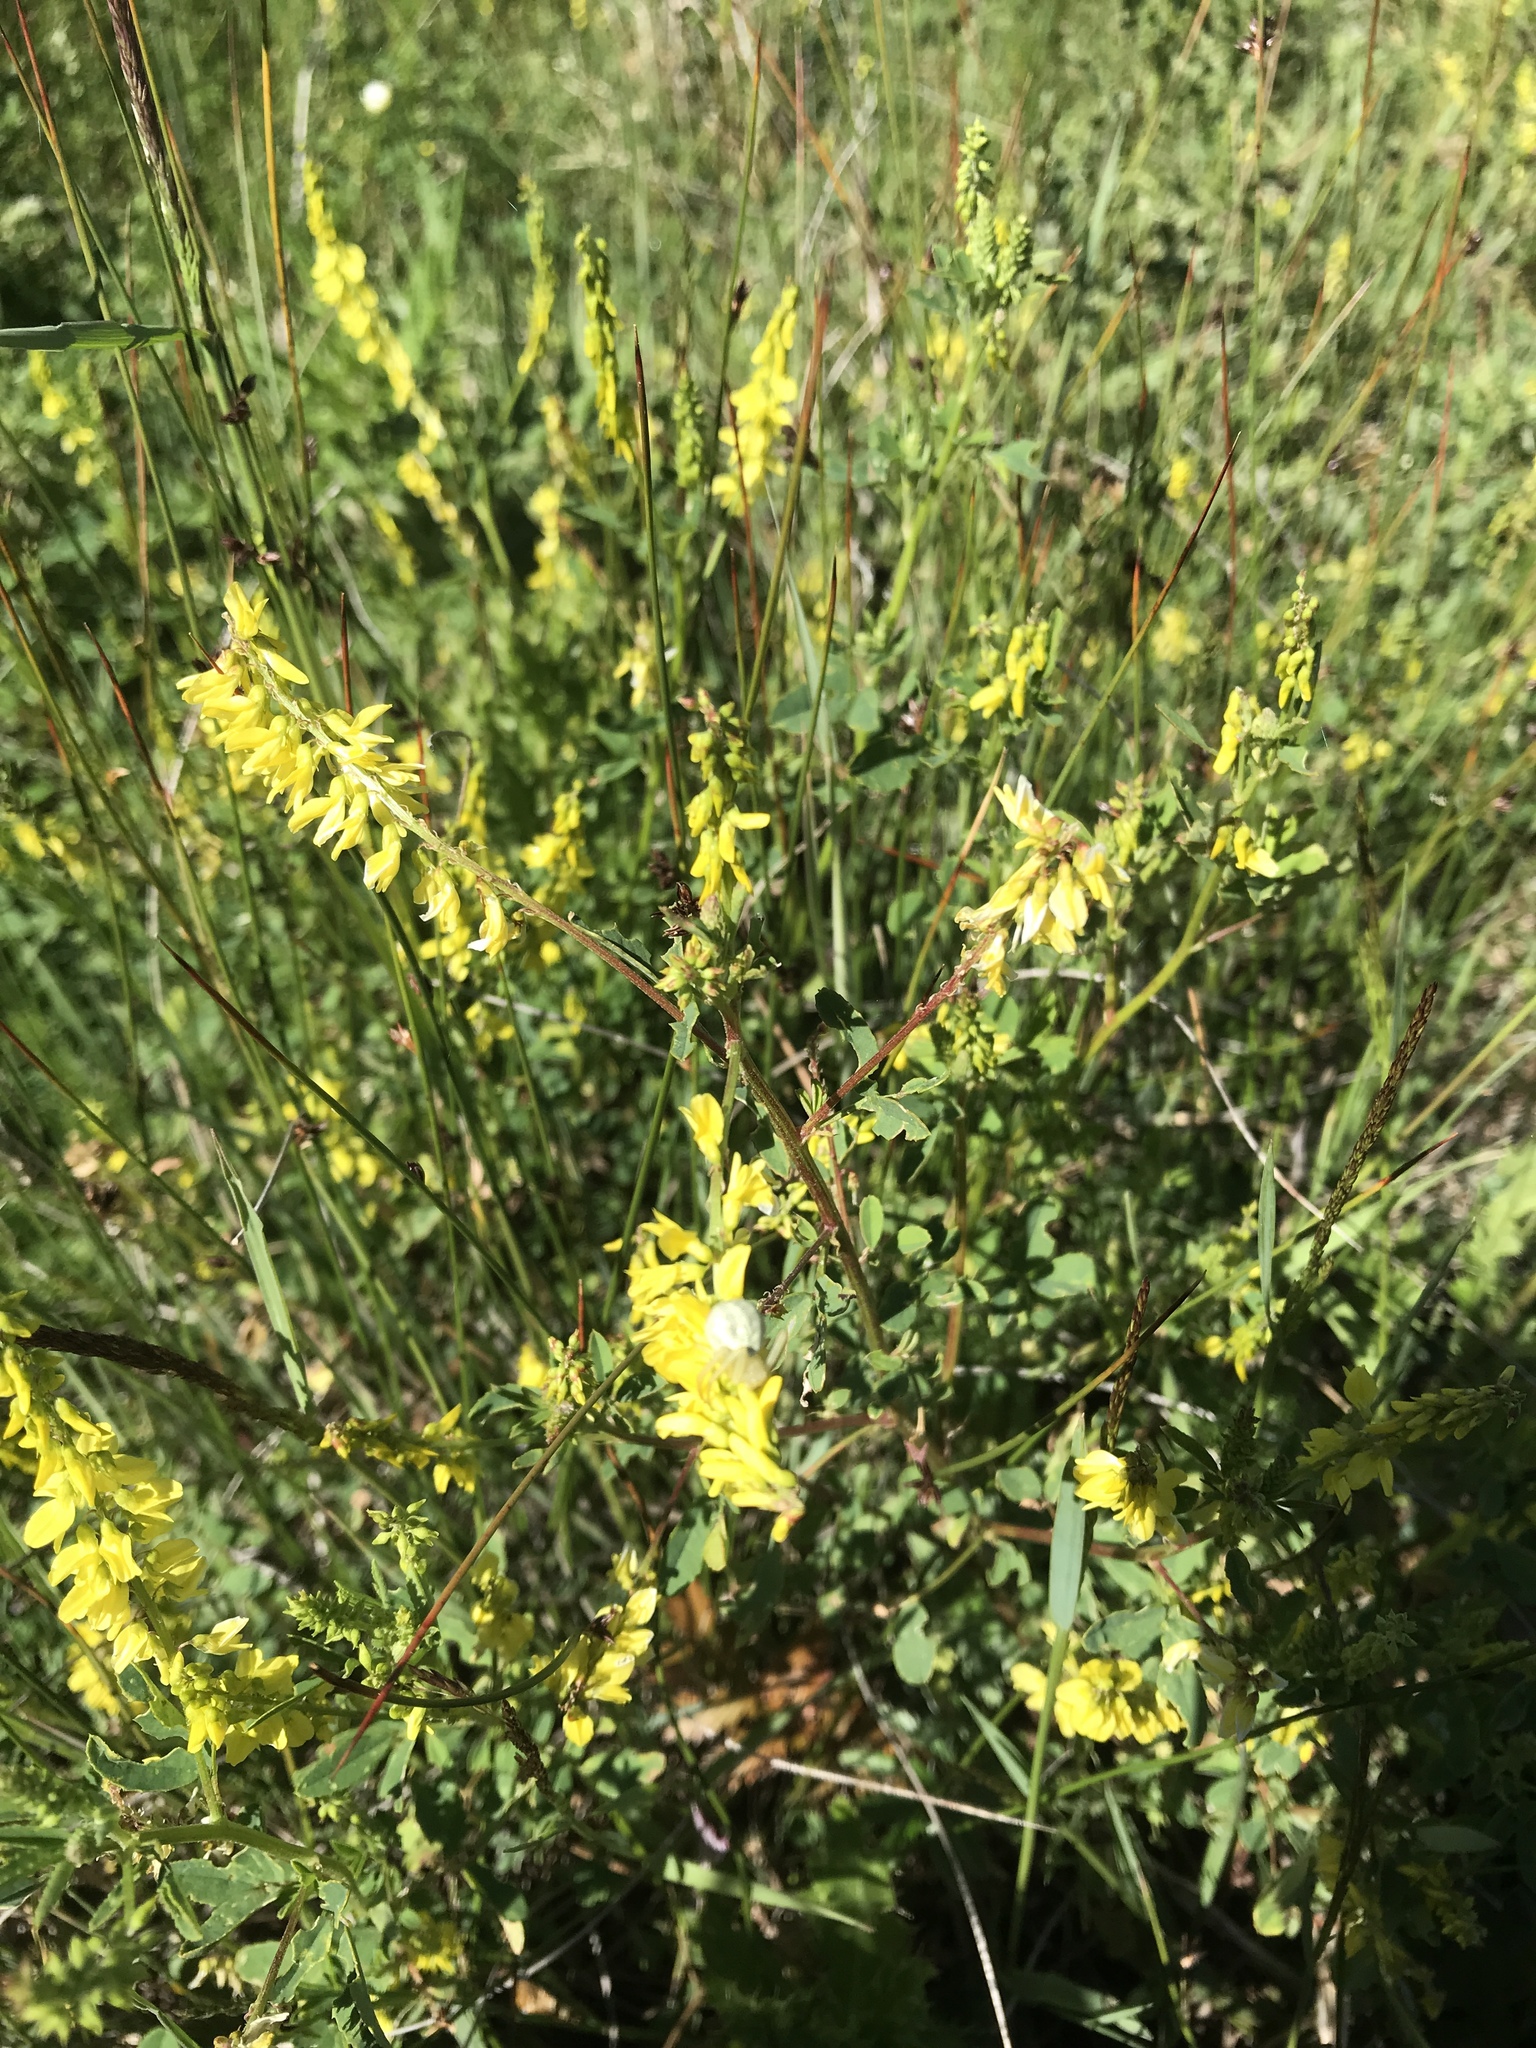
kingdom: Plantae
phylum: Tracheophyta
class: Magnoliopsida
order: Fabales
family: Fabaceae
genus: Melilotus
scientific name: Melilotus officinalis
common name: Sweetclover
